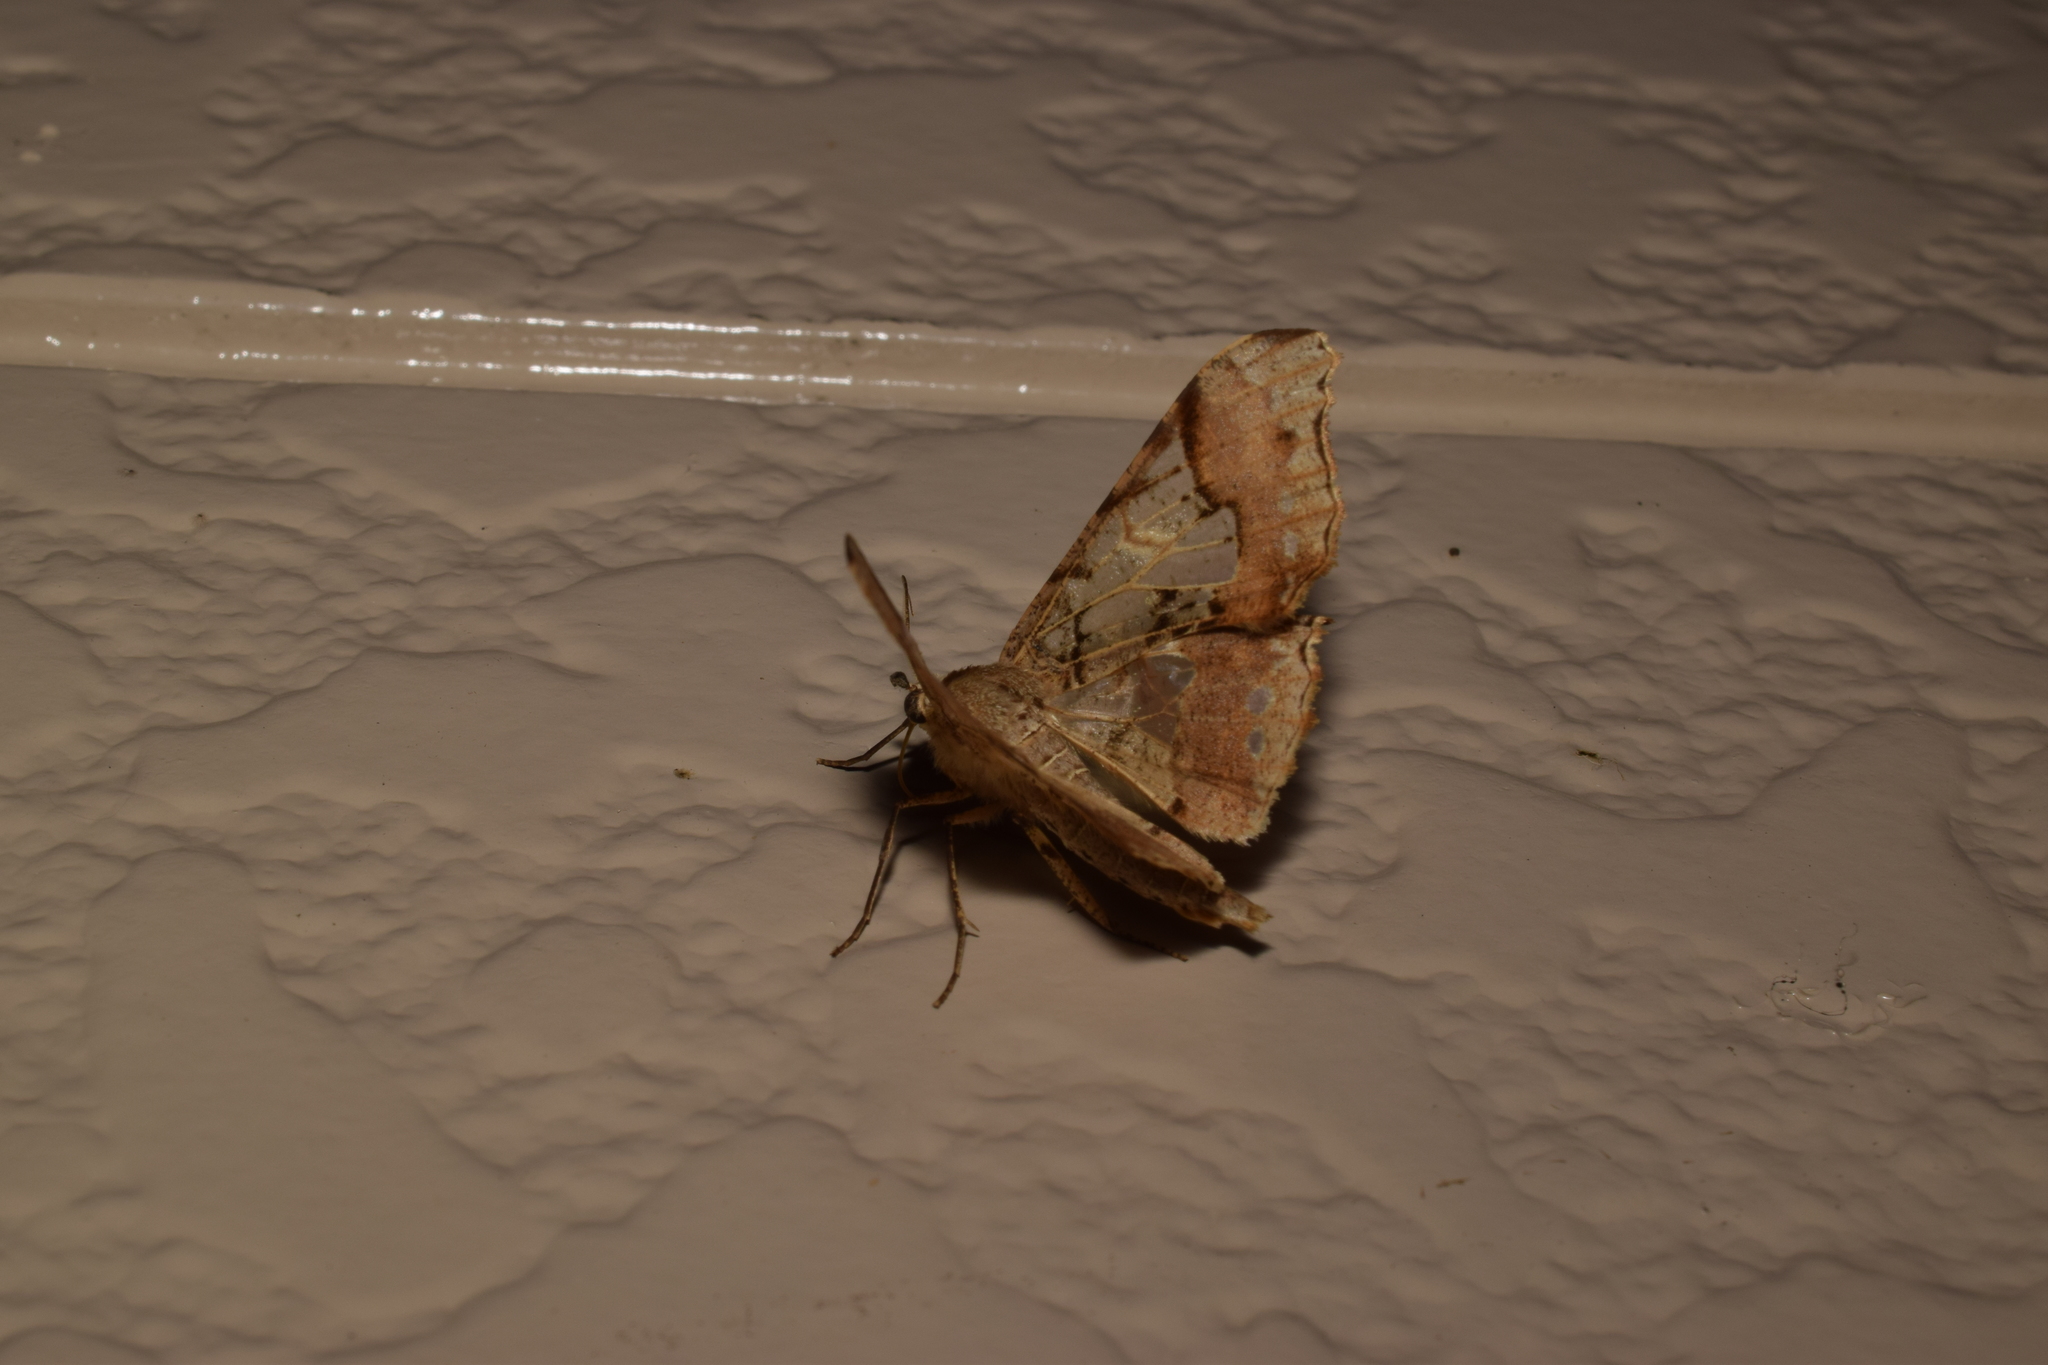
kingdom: Animalia
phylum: Arthropoda
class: Insecta
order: Lepidoptera
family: Geometridae
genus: Krananda
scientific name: Krananda semihyalina
